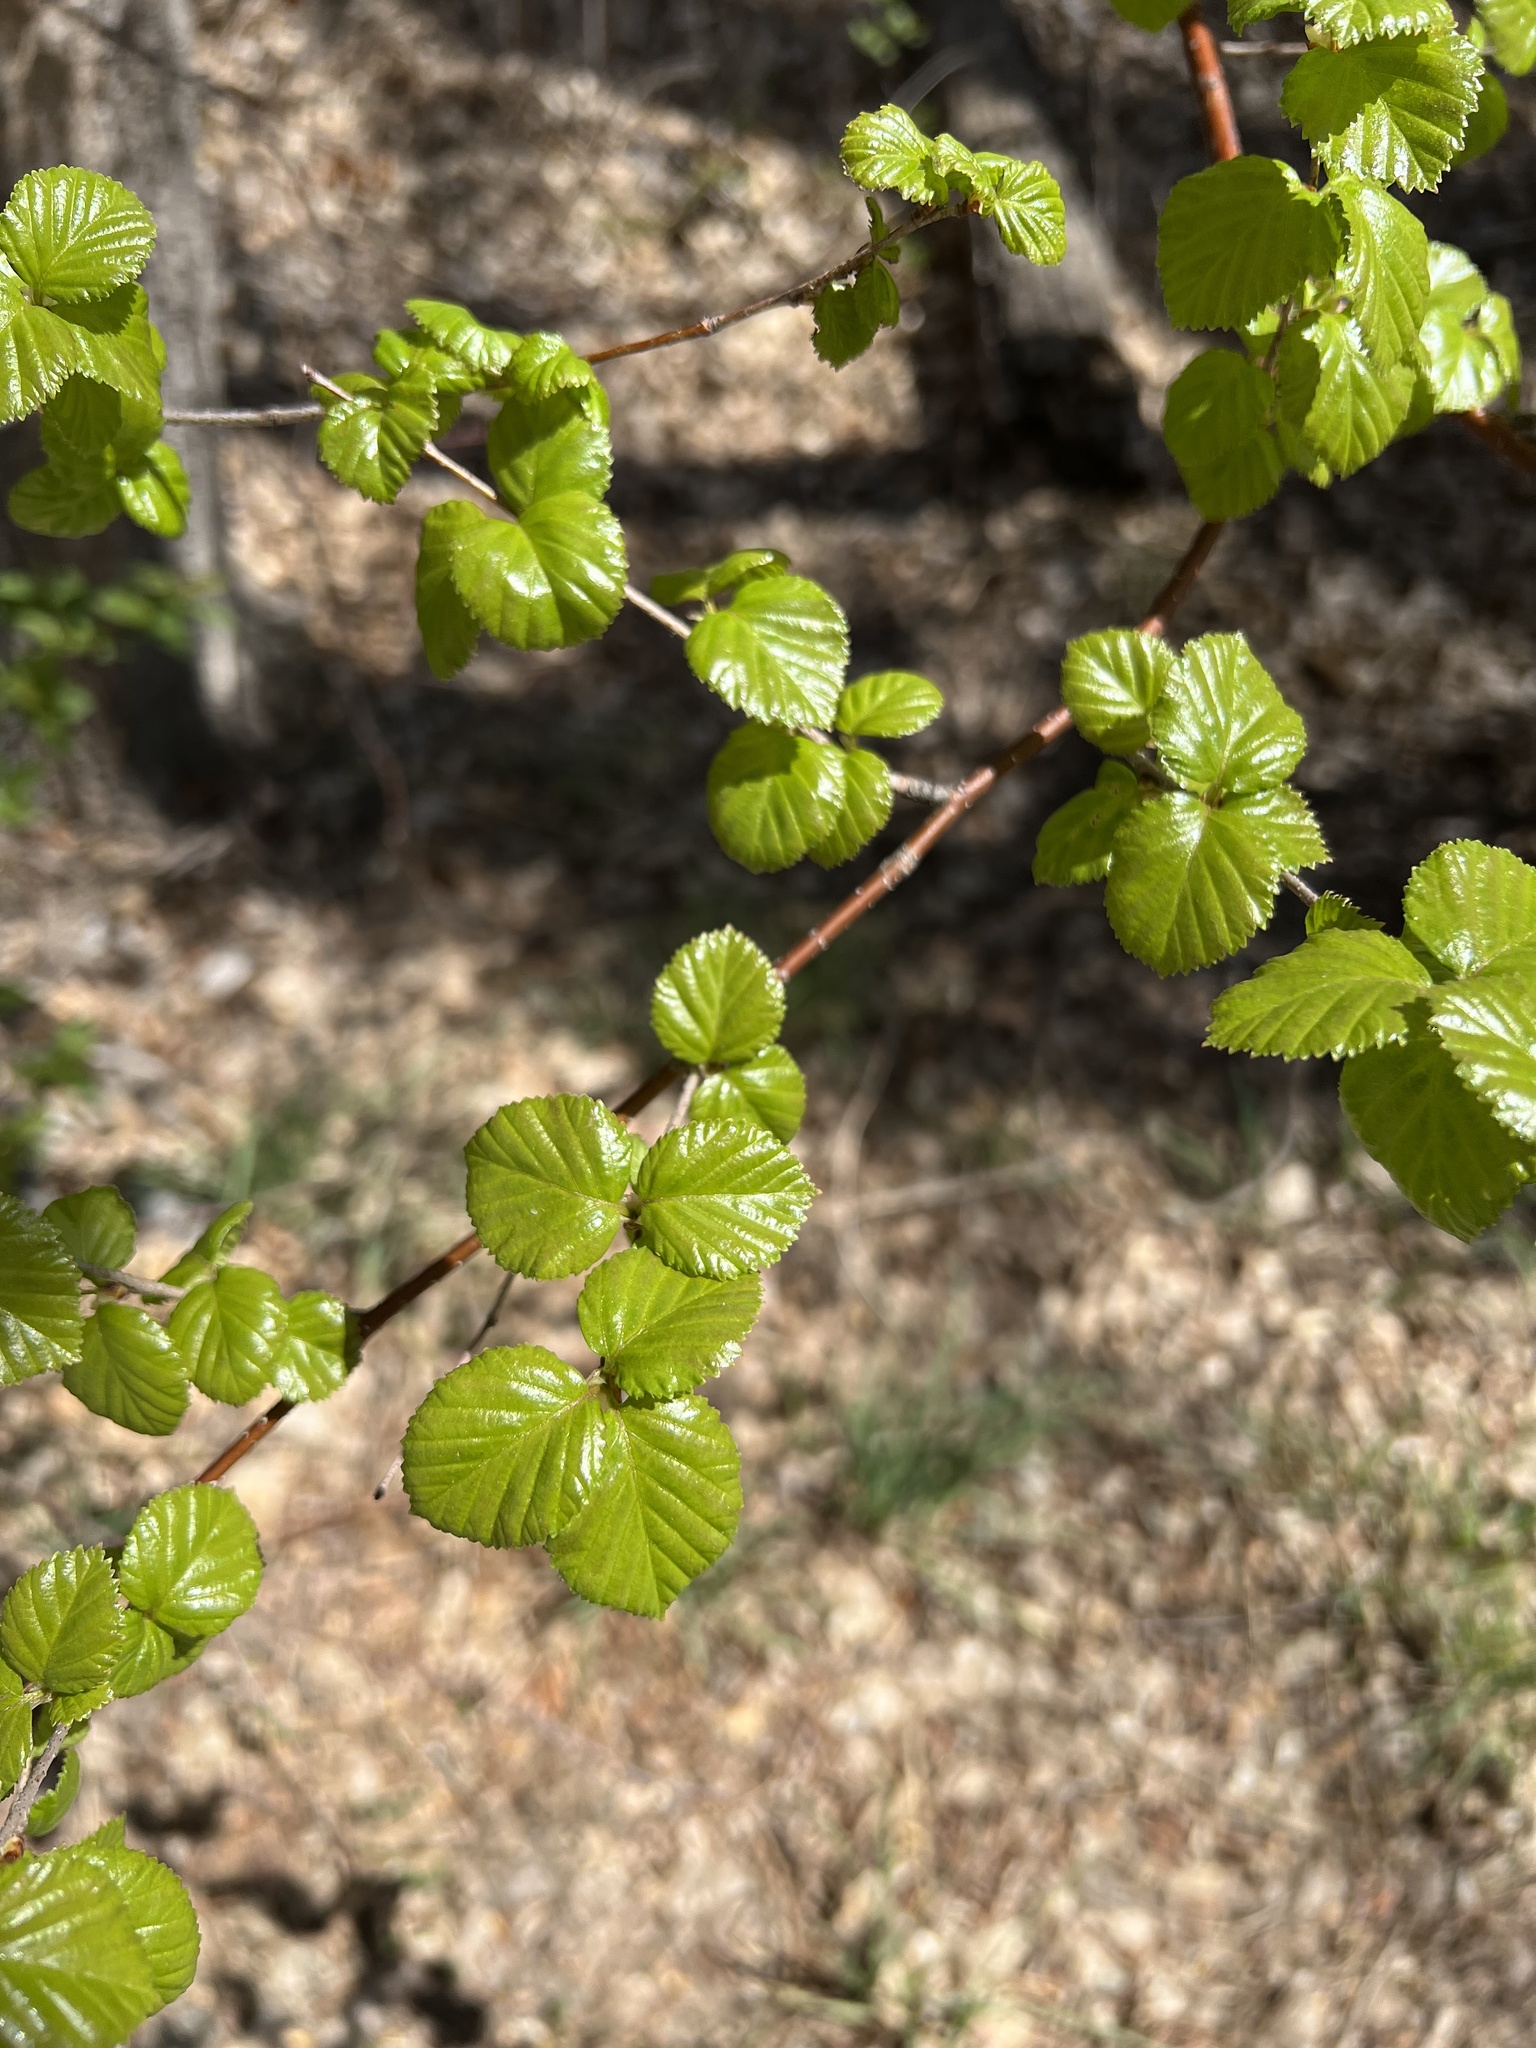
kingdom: Plantae
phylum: Tracheophyta
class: Magnoliopsida
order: Fagales
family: Betulaceae
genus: Betula
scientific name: Betula occidentalis
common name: River birch
